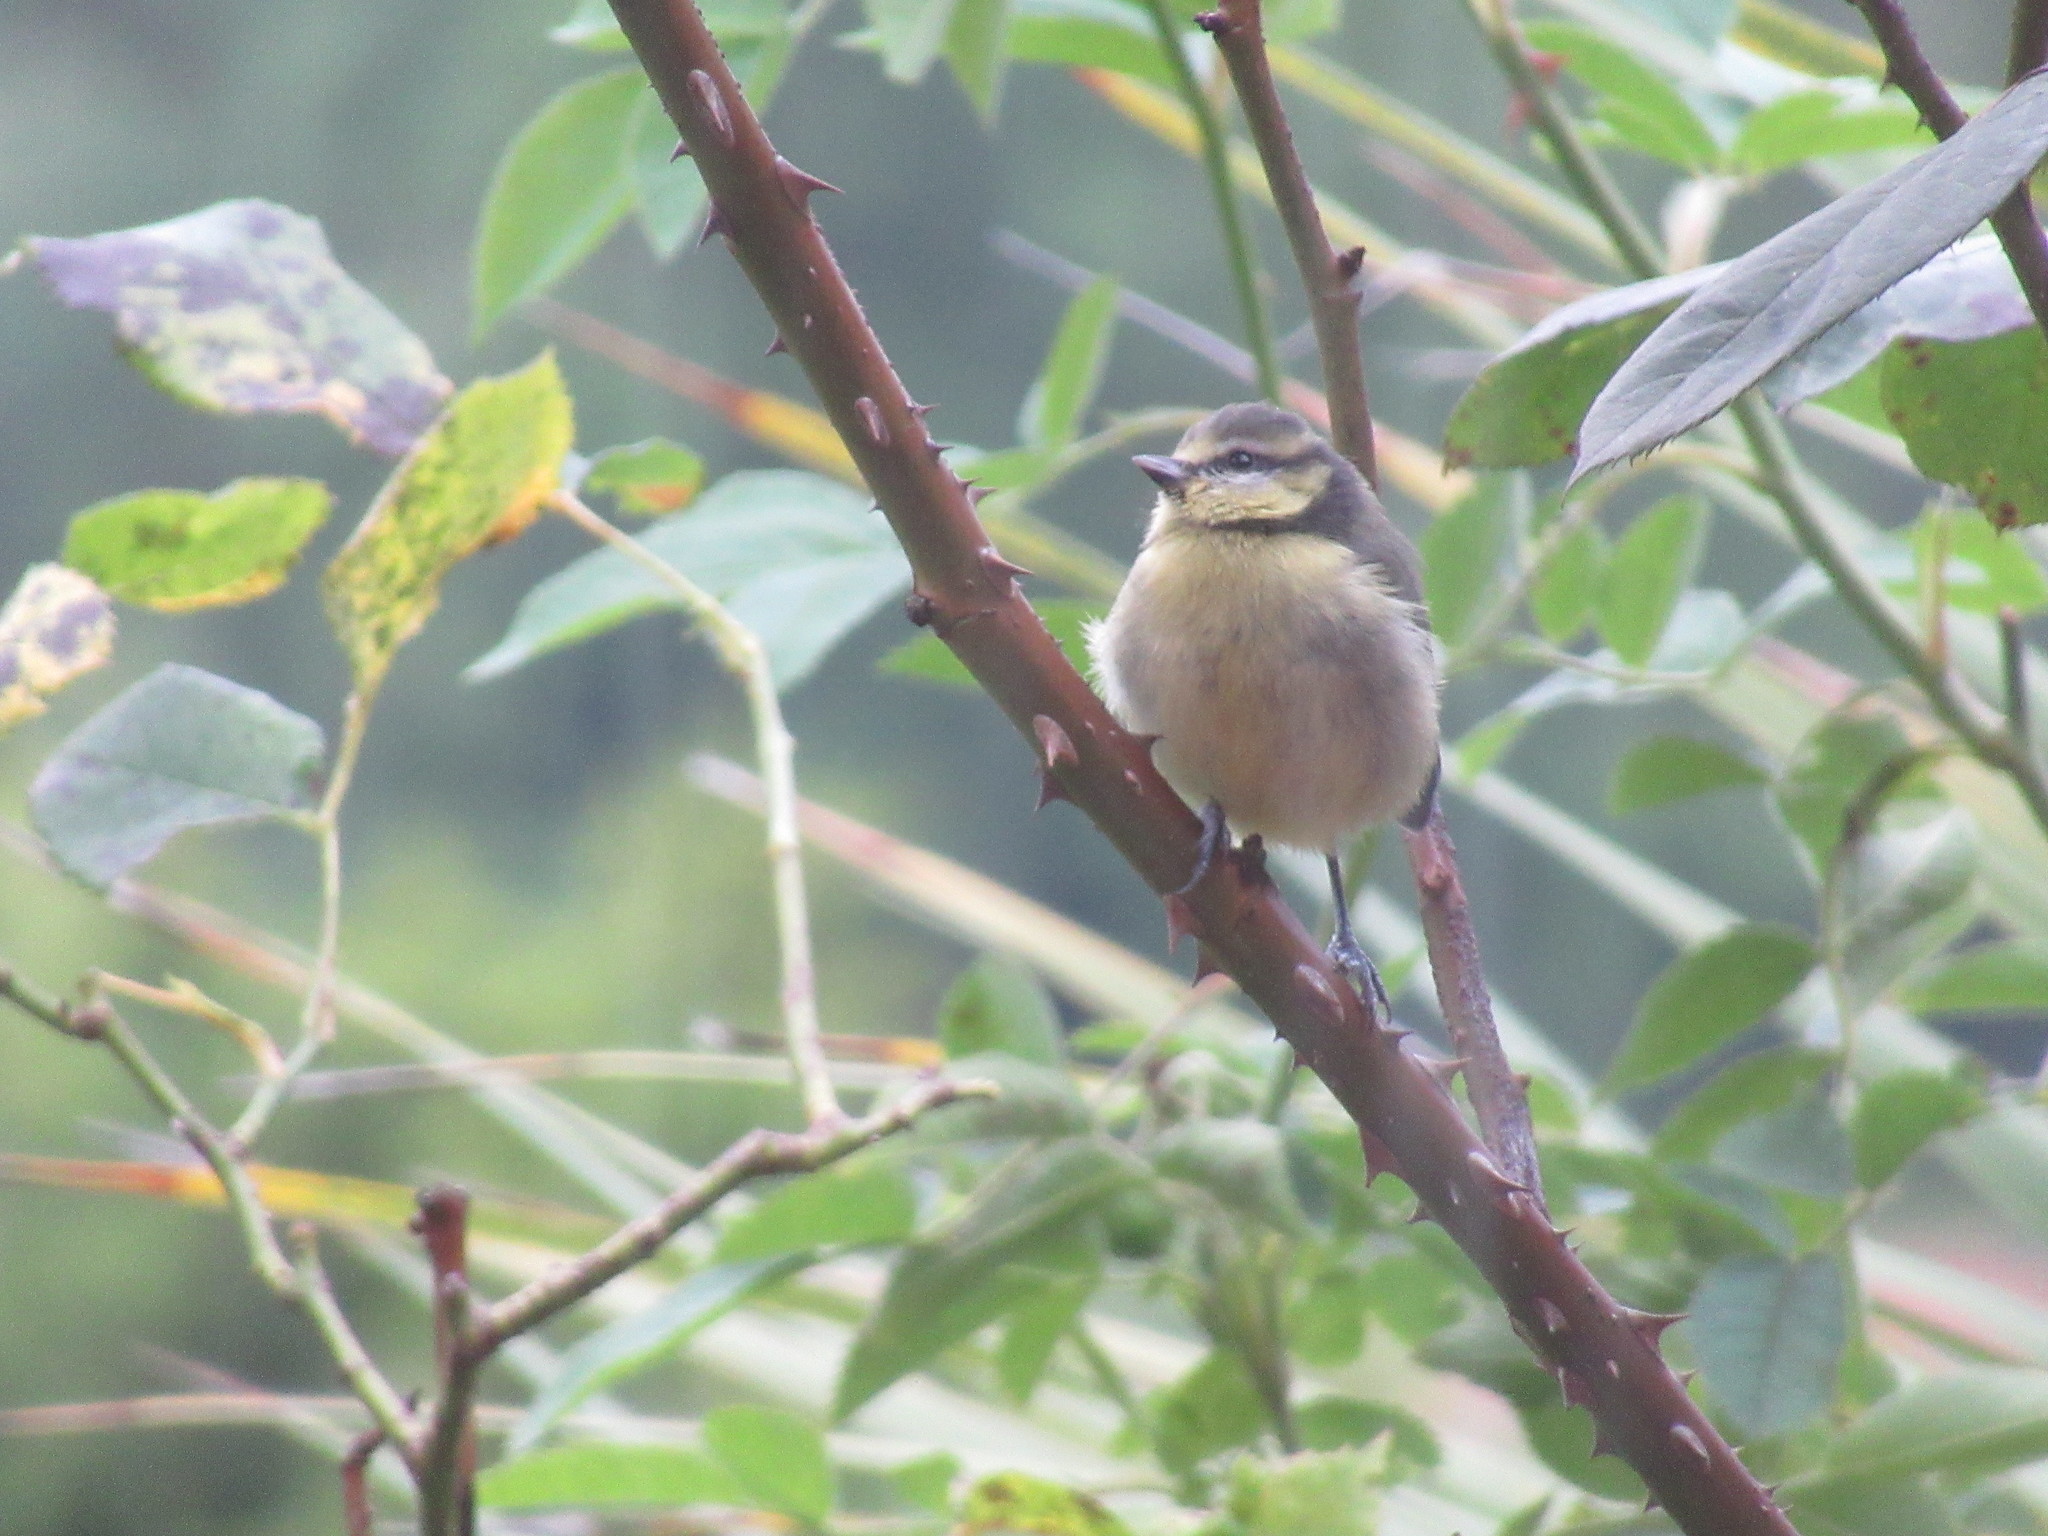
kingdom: Animalia
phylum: Chordata
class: Aves
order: Passeriformes
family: Paridae
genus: Cyanistes
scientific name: Cyanistes caeruleus
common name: Eurasian blue tit
